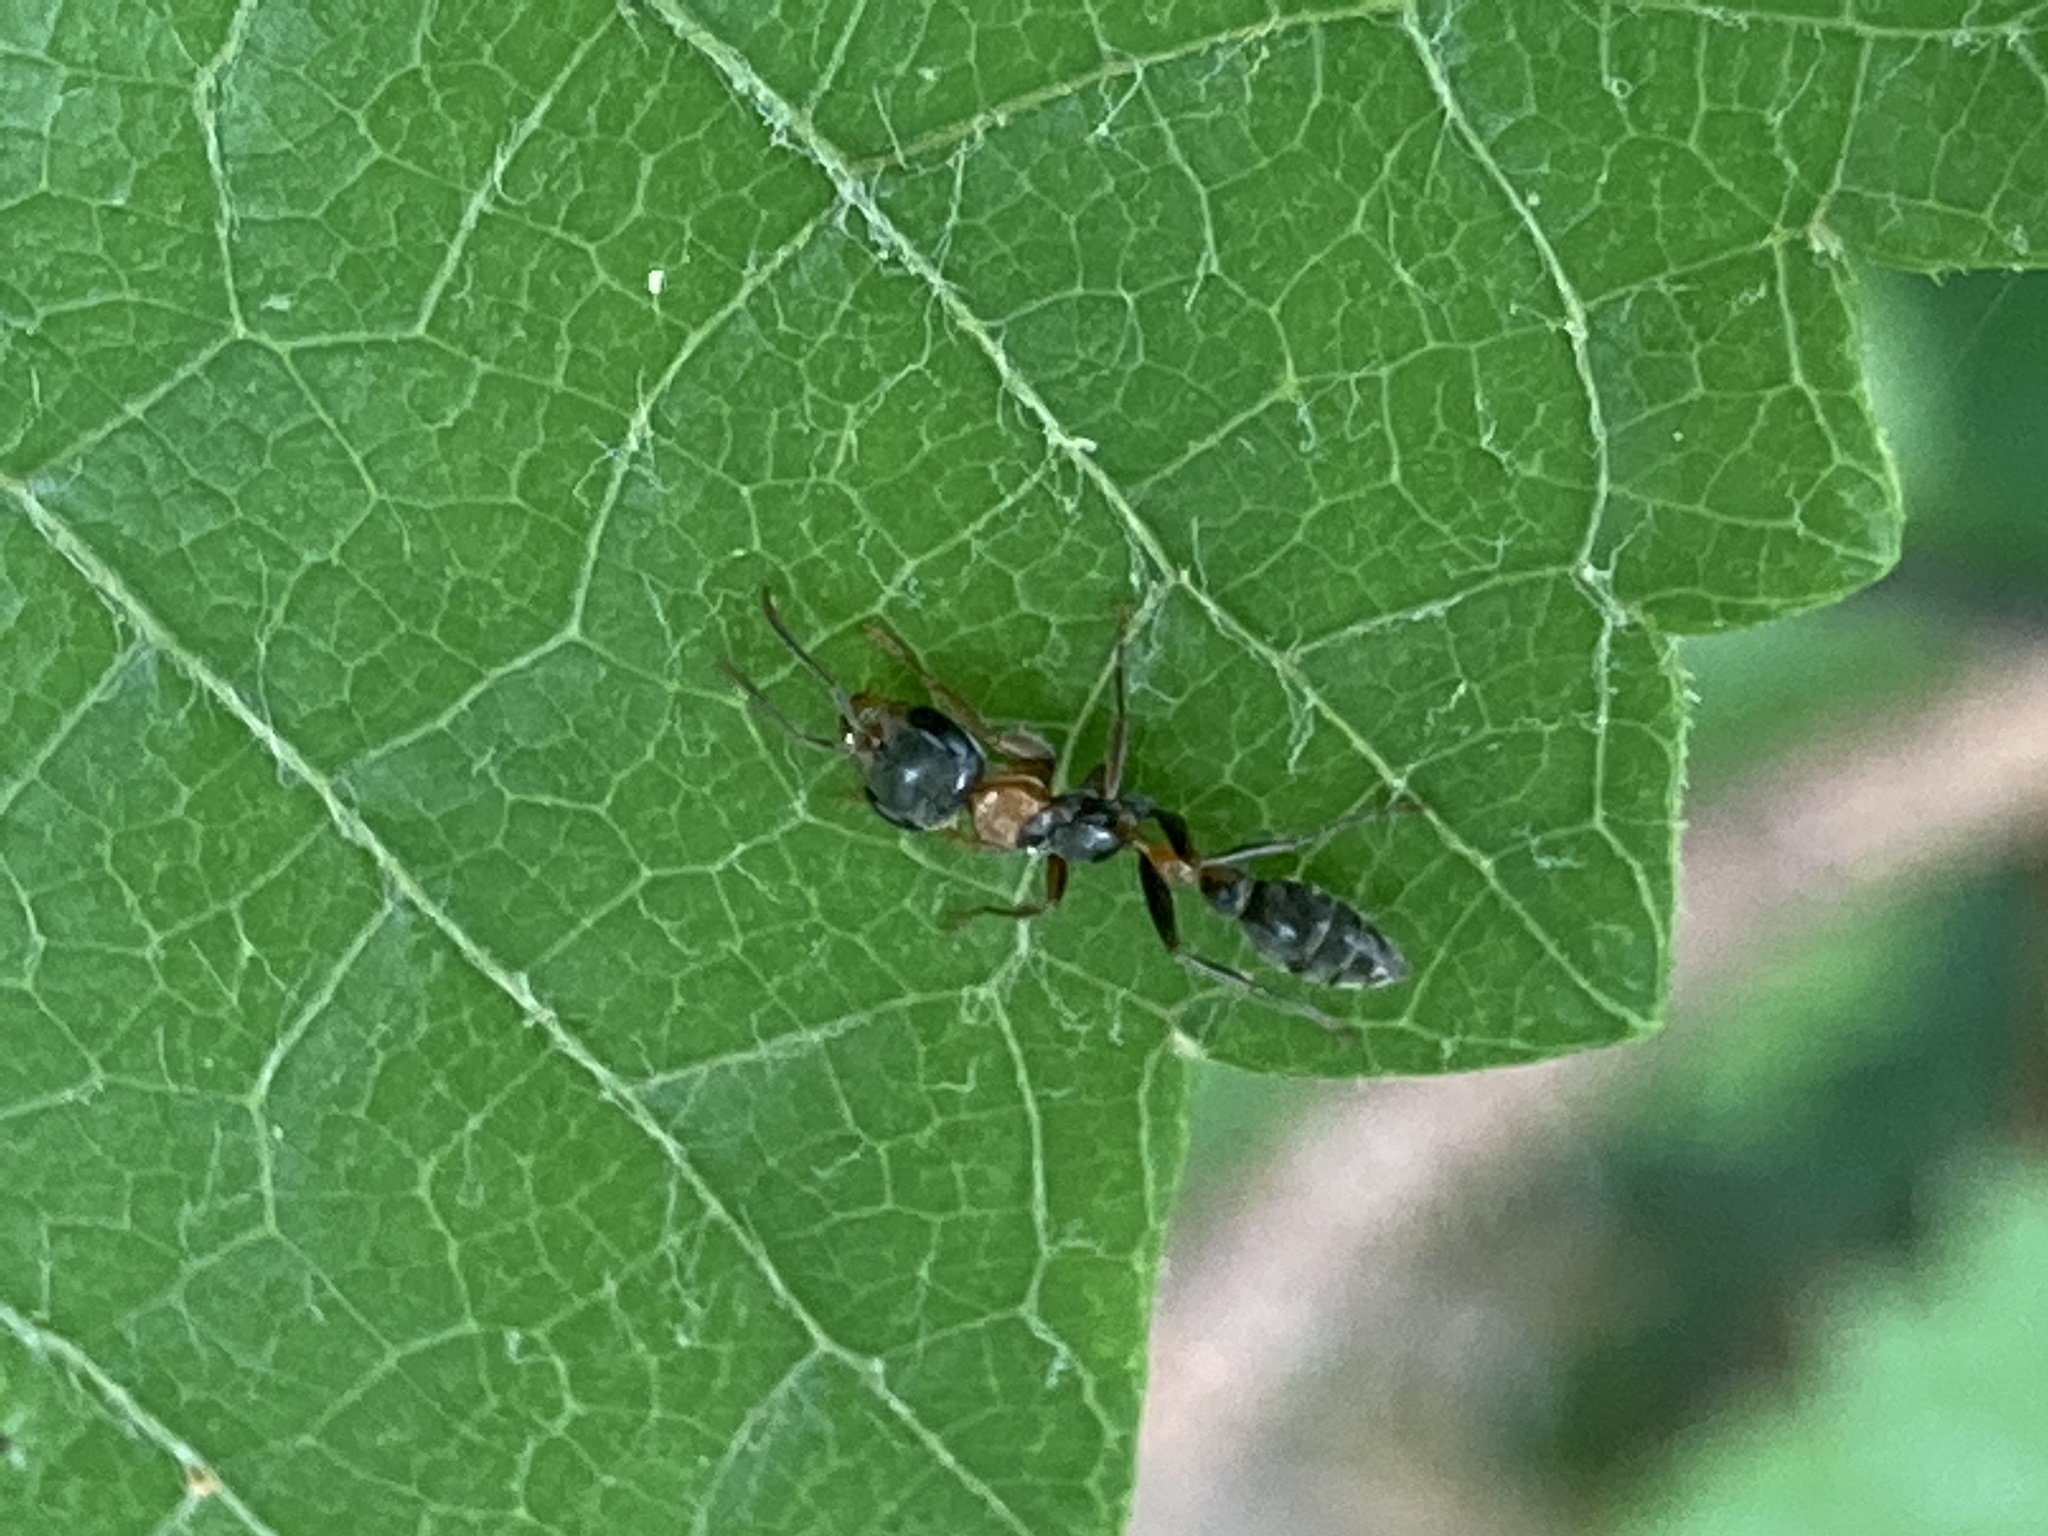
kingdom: Animalia
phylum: Arthropoda
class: Insecta
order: Hymenoptera
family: Formicidae
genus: Pseudomyrmex
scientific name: Pseudomyrmex gracilis
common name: Graceful twig ant
